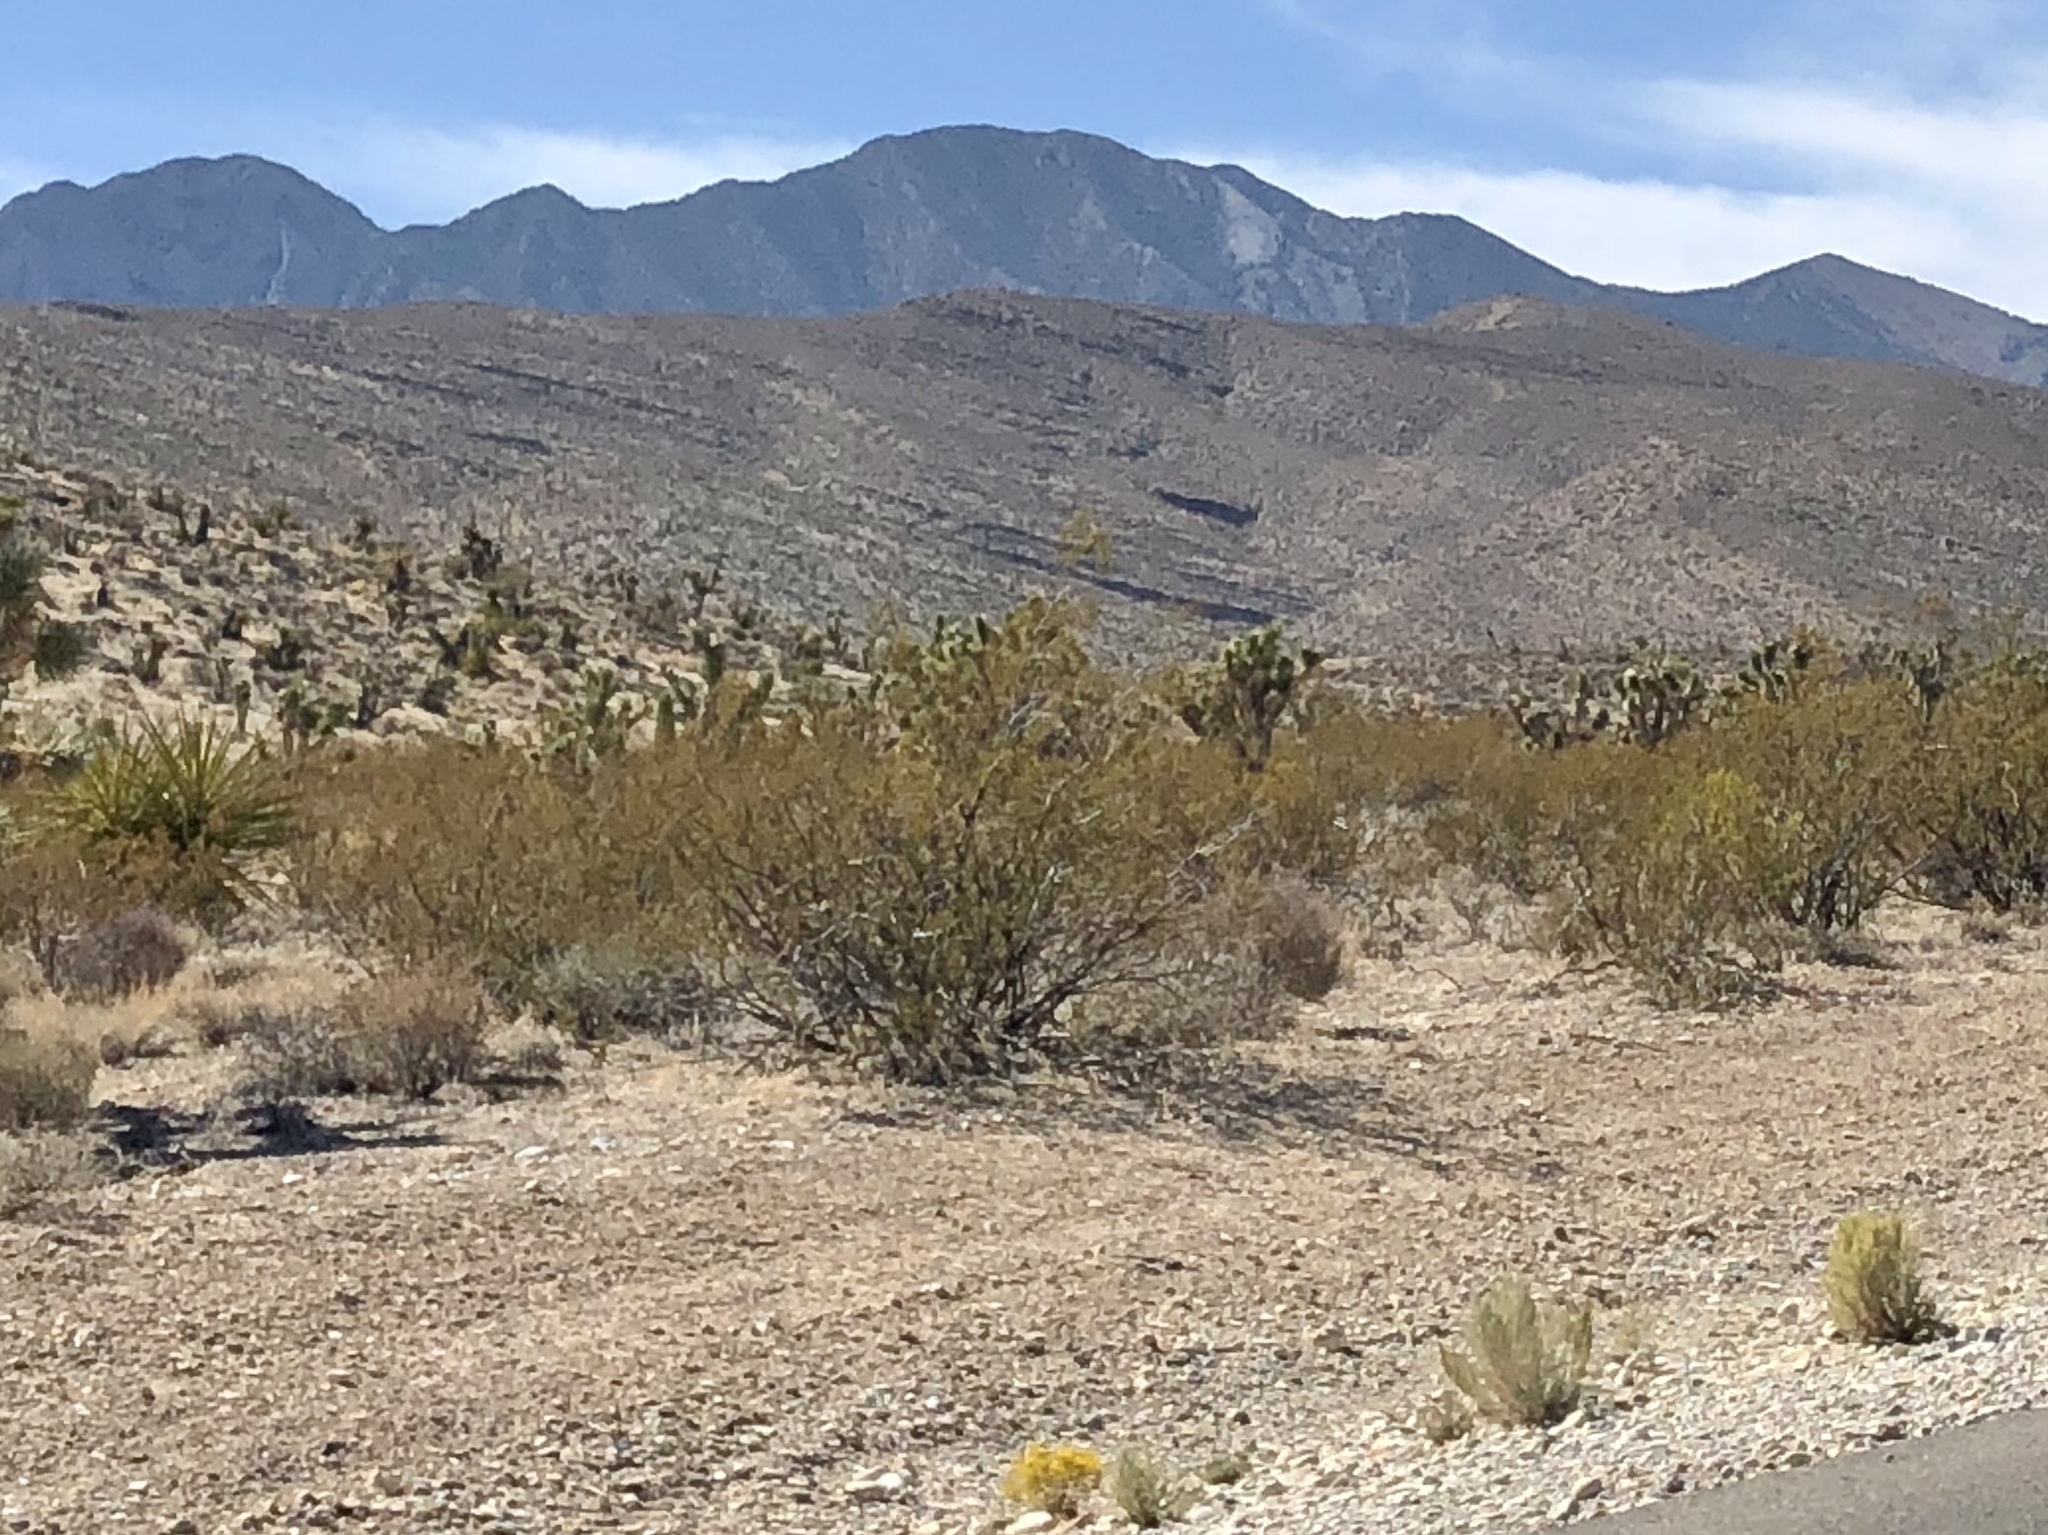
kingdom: Plantae
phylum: Tracheophyta
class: Magnoliopsida
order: Zygophyllales
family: Zygophyllaceae
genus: Larrea
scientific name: Larrea tridentata
